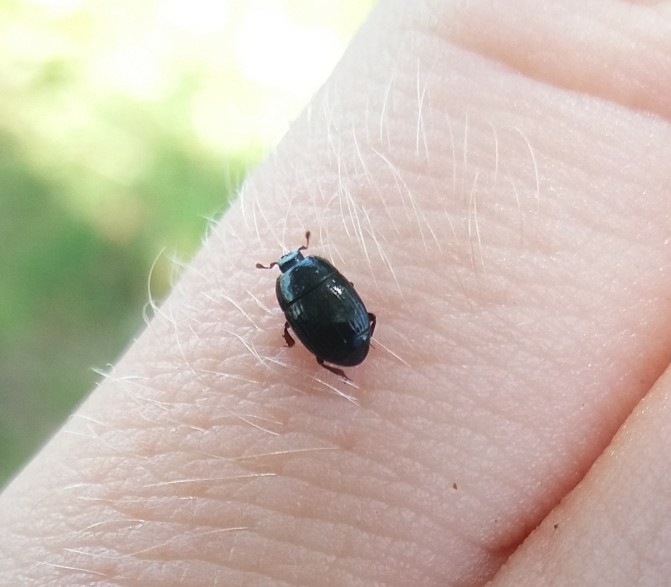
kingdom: Animalia
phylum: Arthropoda
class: Insecta
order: Coleoptera
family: Histeridae
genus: Carcinops
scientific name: Carcinops pumilio
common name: Clown beetle
